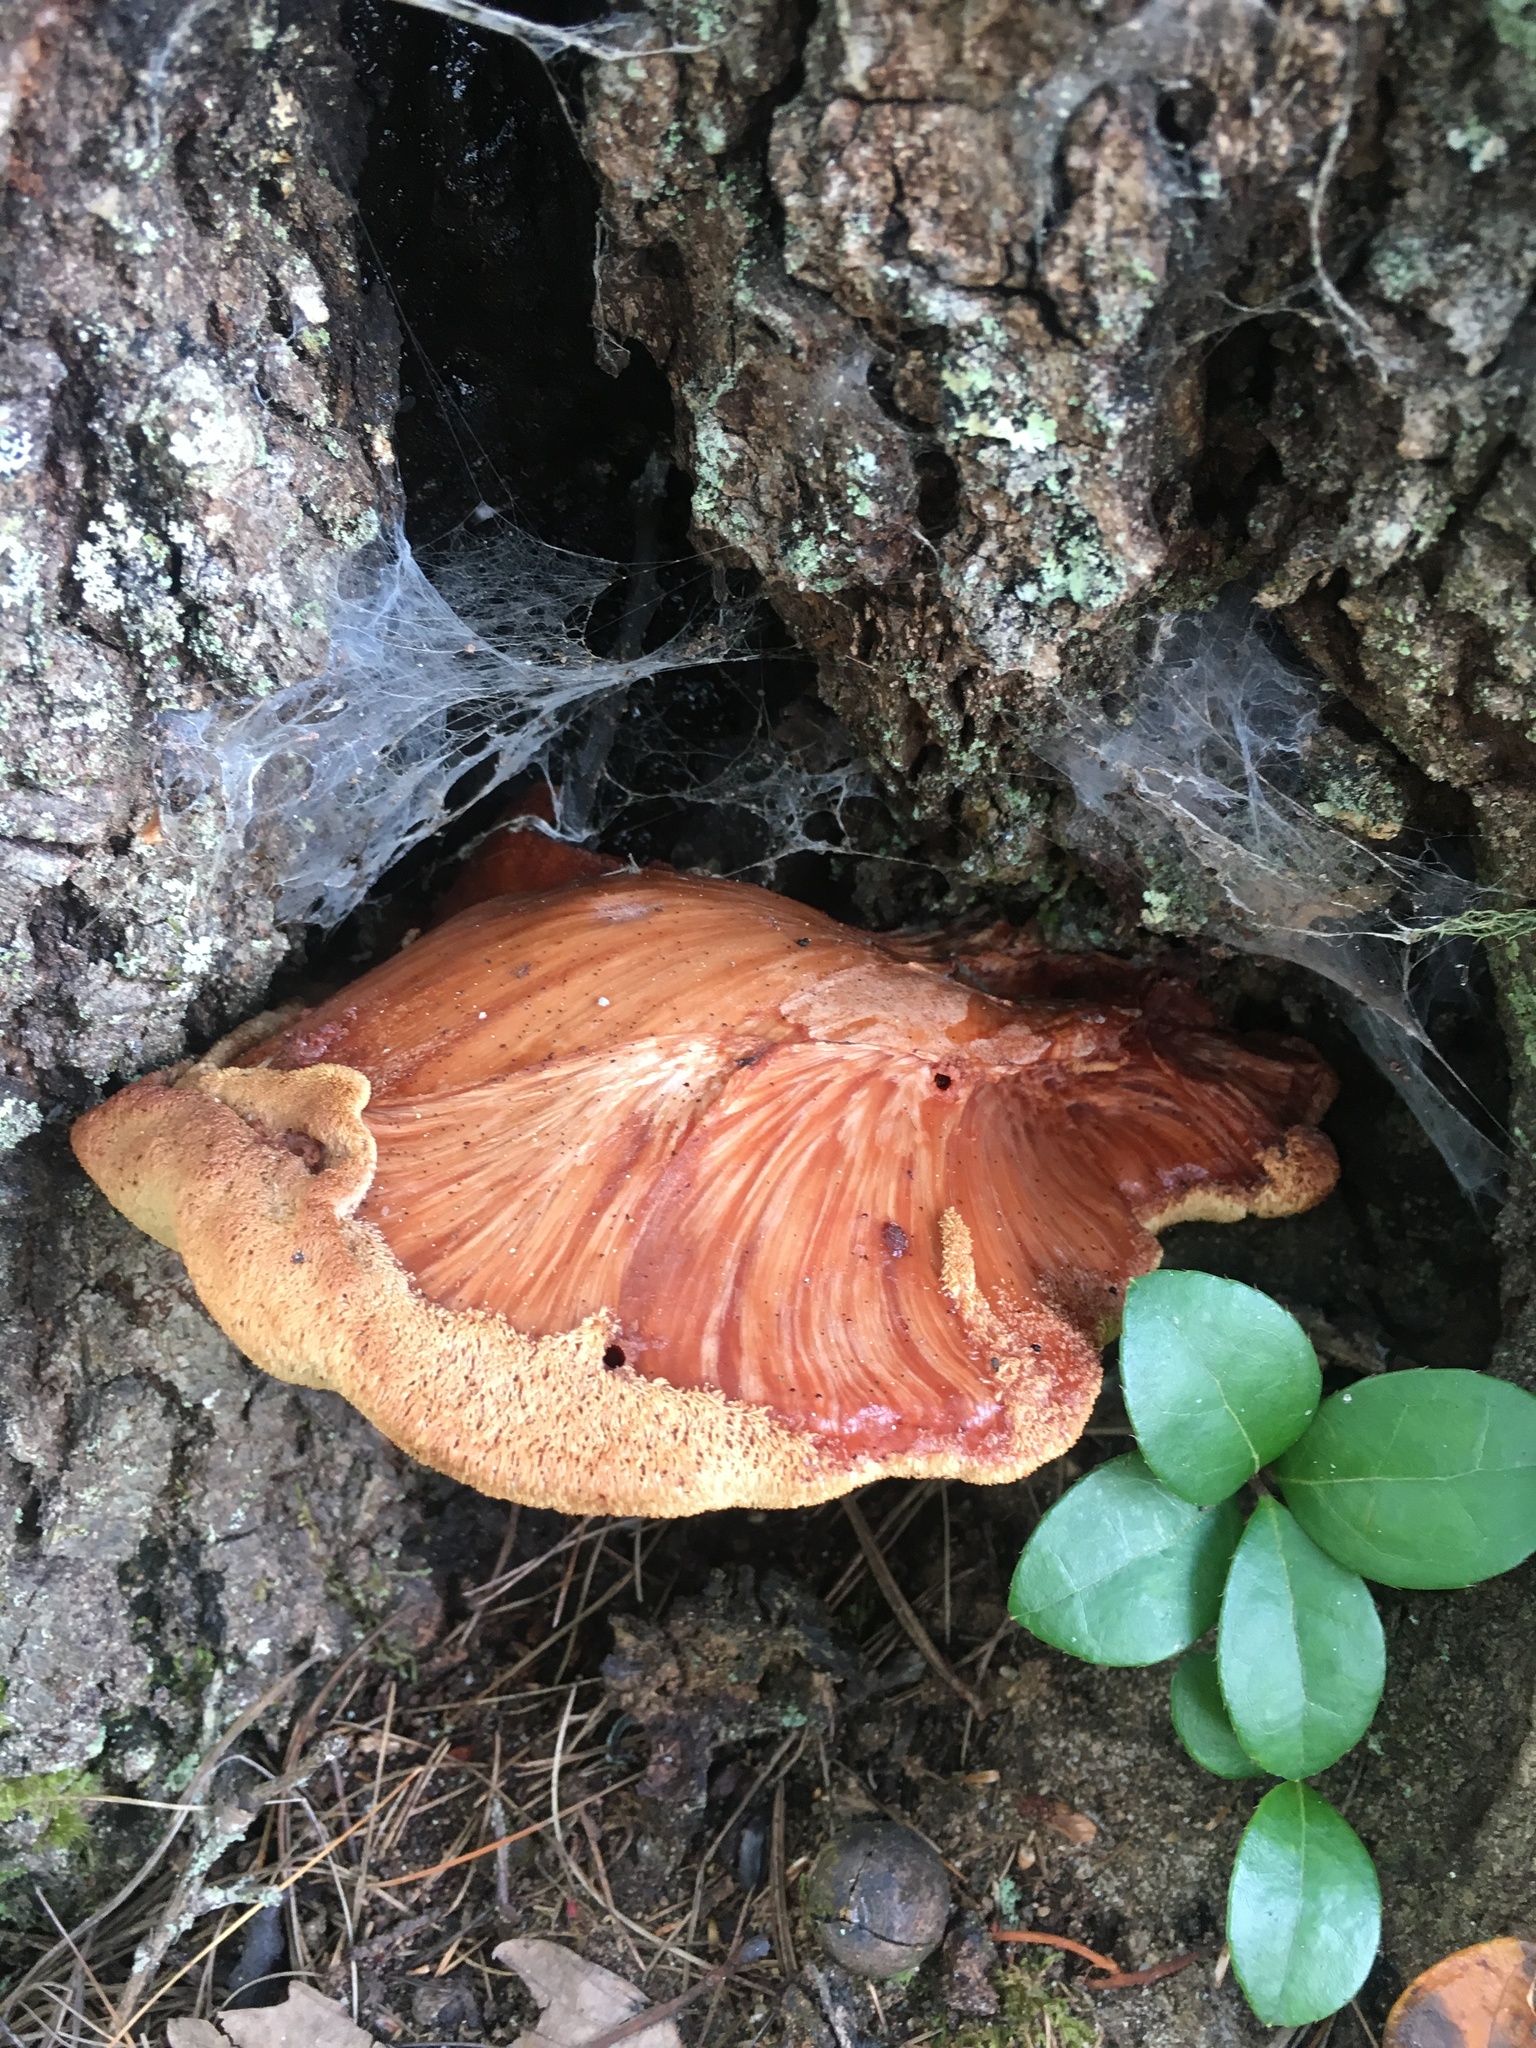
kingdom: Fungi
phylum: Basidiomycota
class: Agaricomycetes
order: Agaricales
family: Fistulinaceae
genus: Fistulina
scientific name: Fistulina hepatica
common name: Beef-steak fungus
